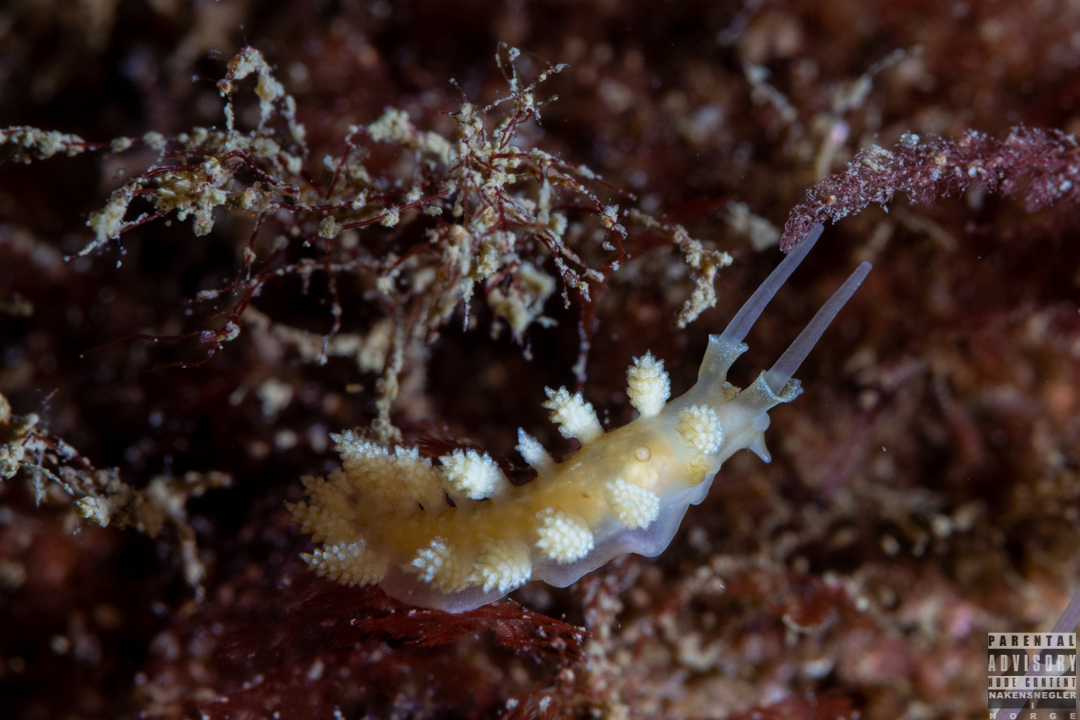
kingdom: Animalia
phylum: Mollusca
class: Gastropoda
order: Nudibranchia
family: Dotidae
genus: Doto
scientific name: Doto fragilis
